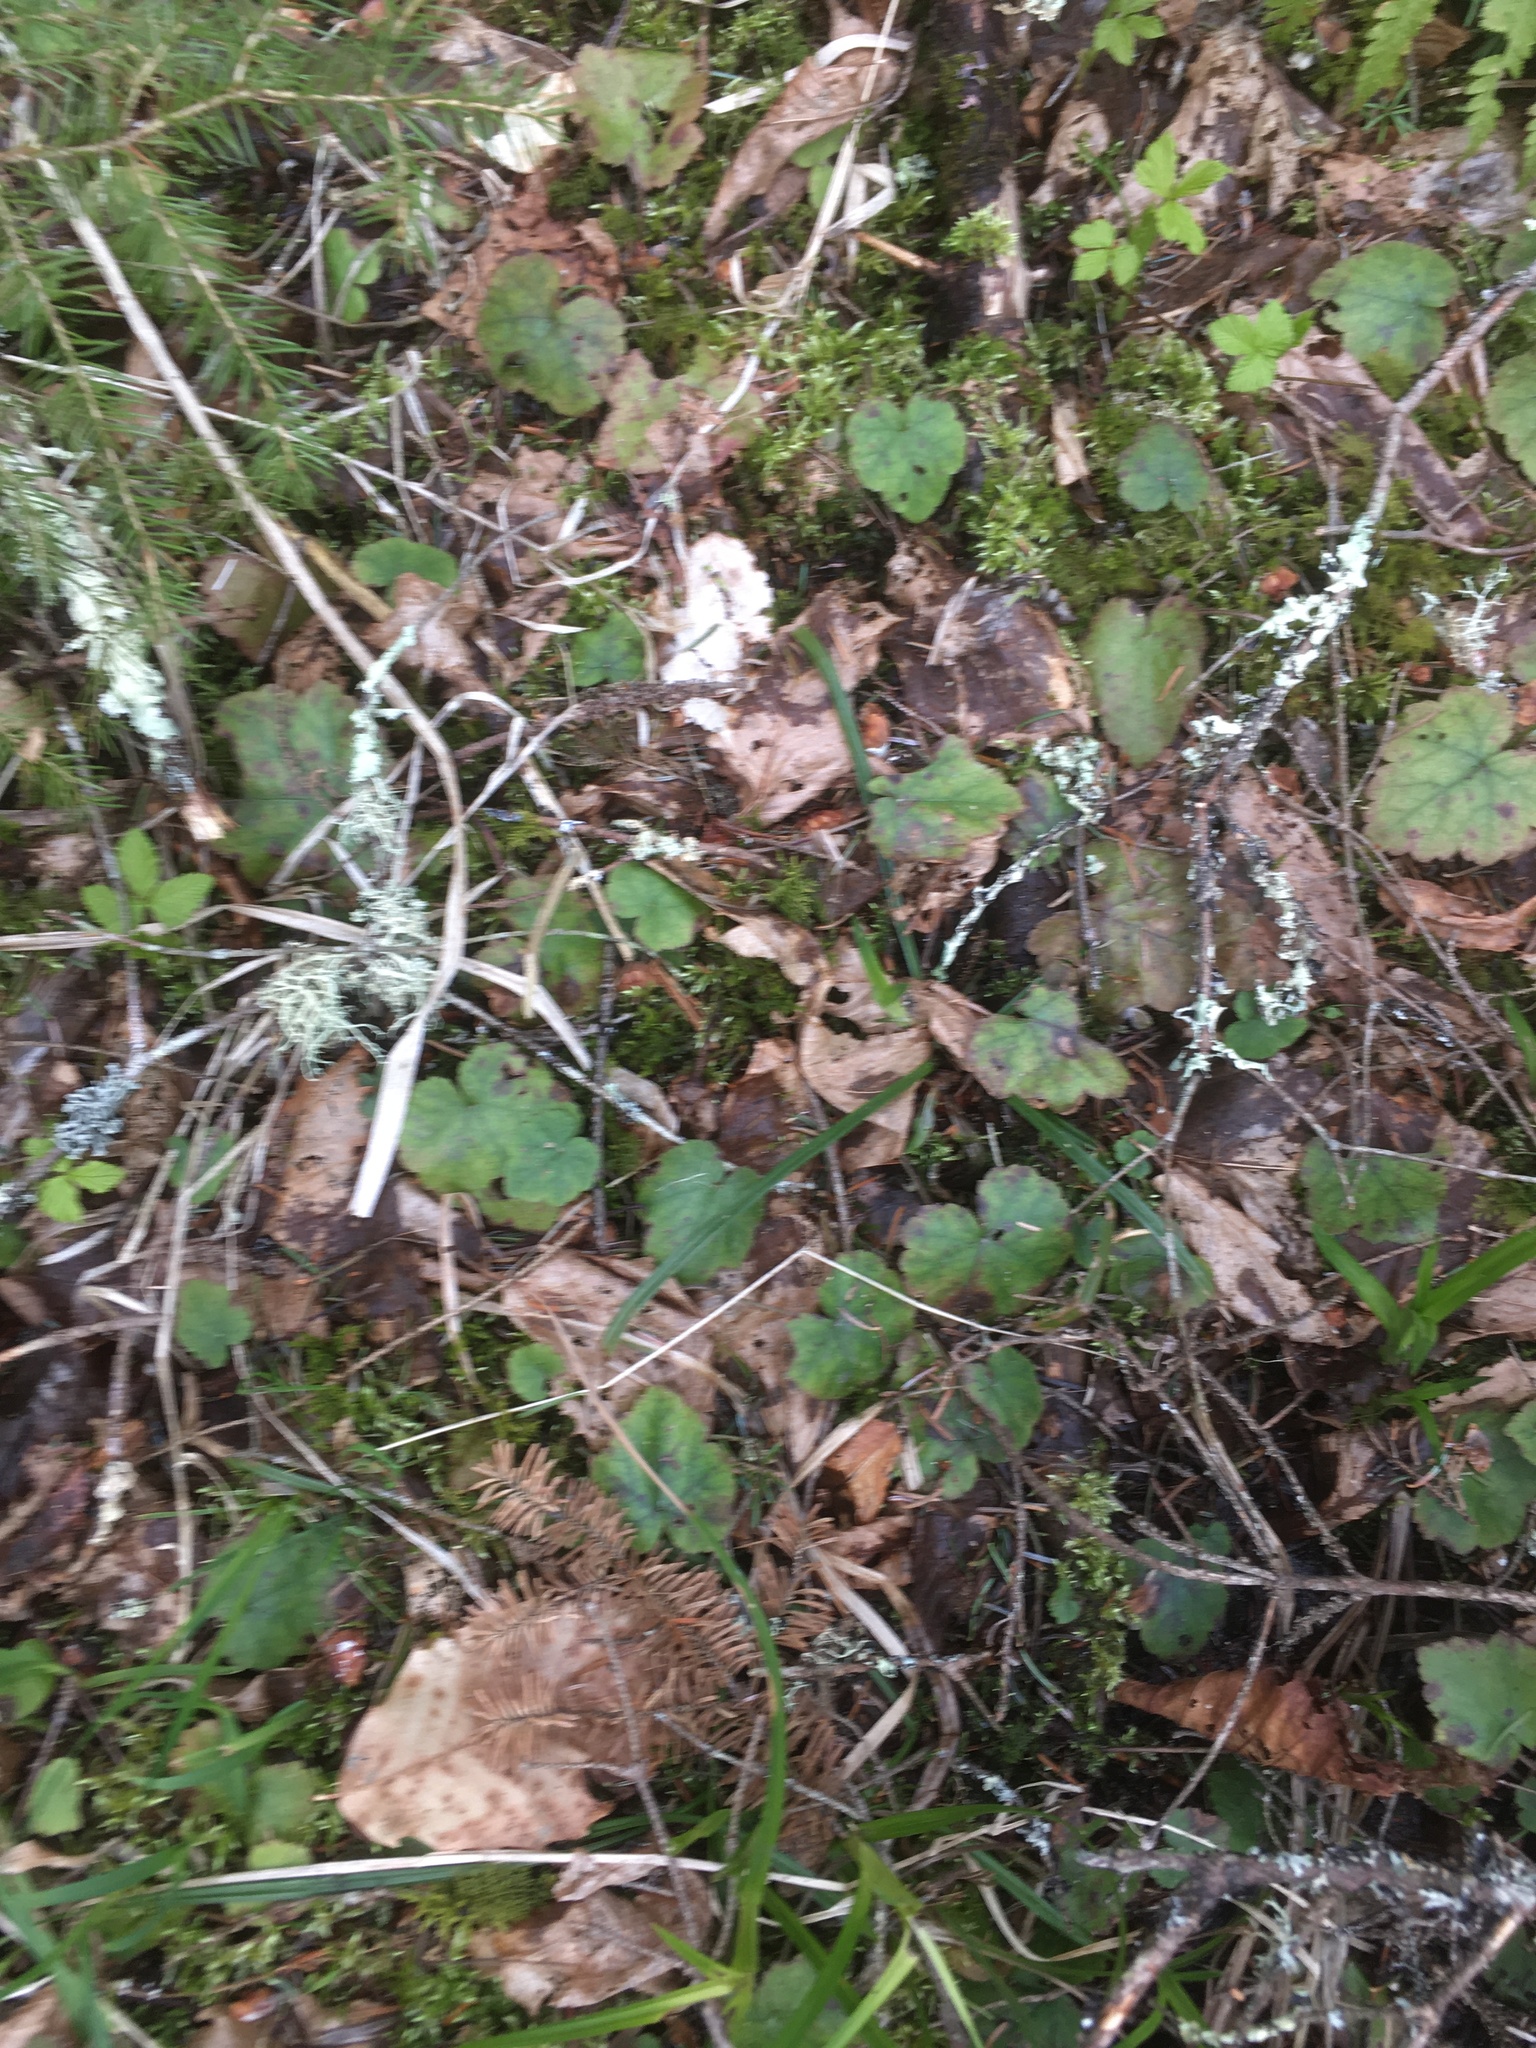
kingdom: Plantae
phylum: Tracheophyta
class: Magnoliopsida
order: Saxifragales
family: Saxifragaceae
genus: Tiarella
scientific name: Tiarella stolonifera
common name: Stoloniferous foamflower
